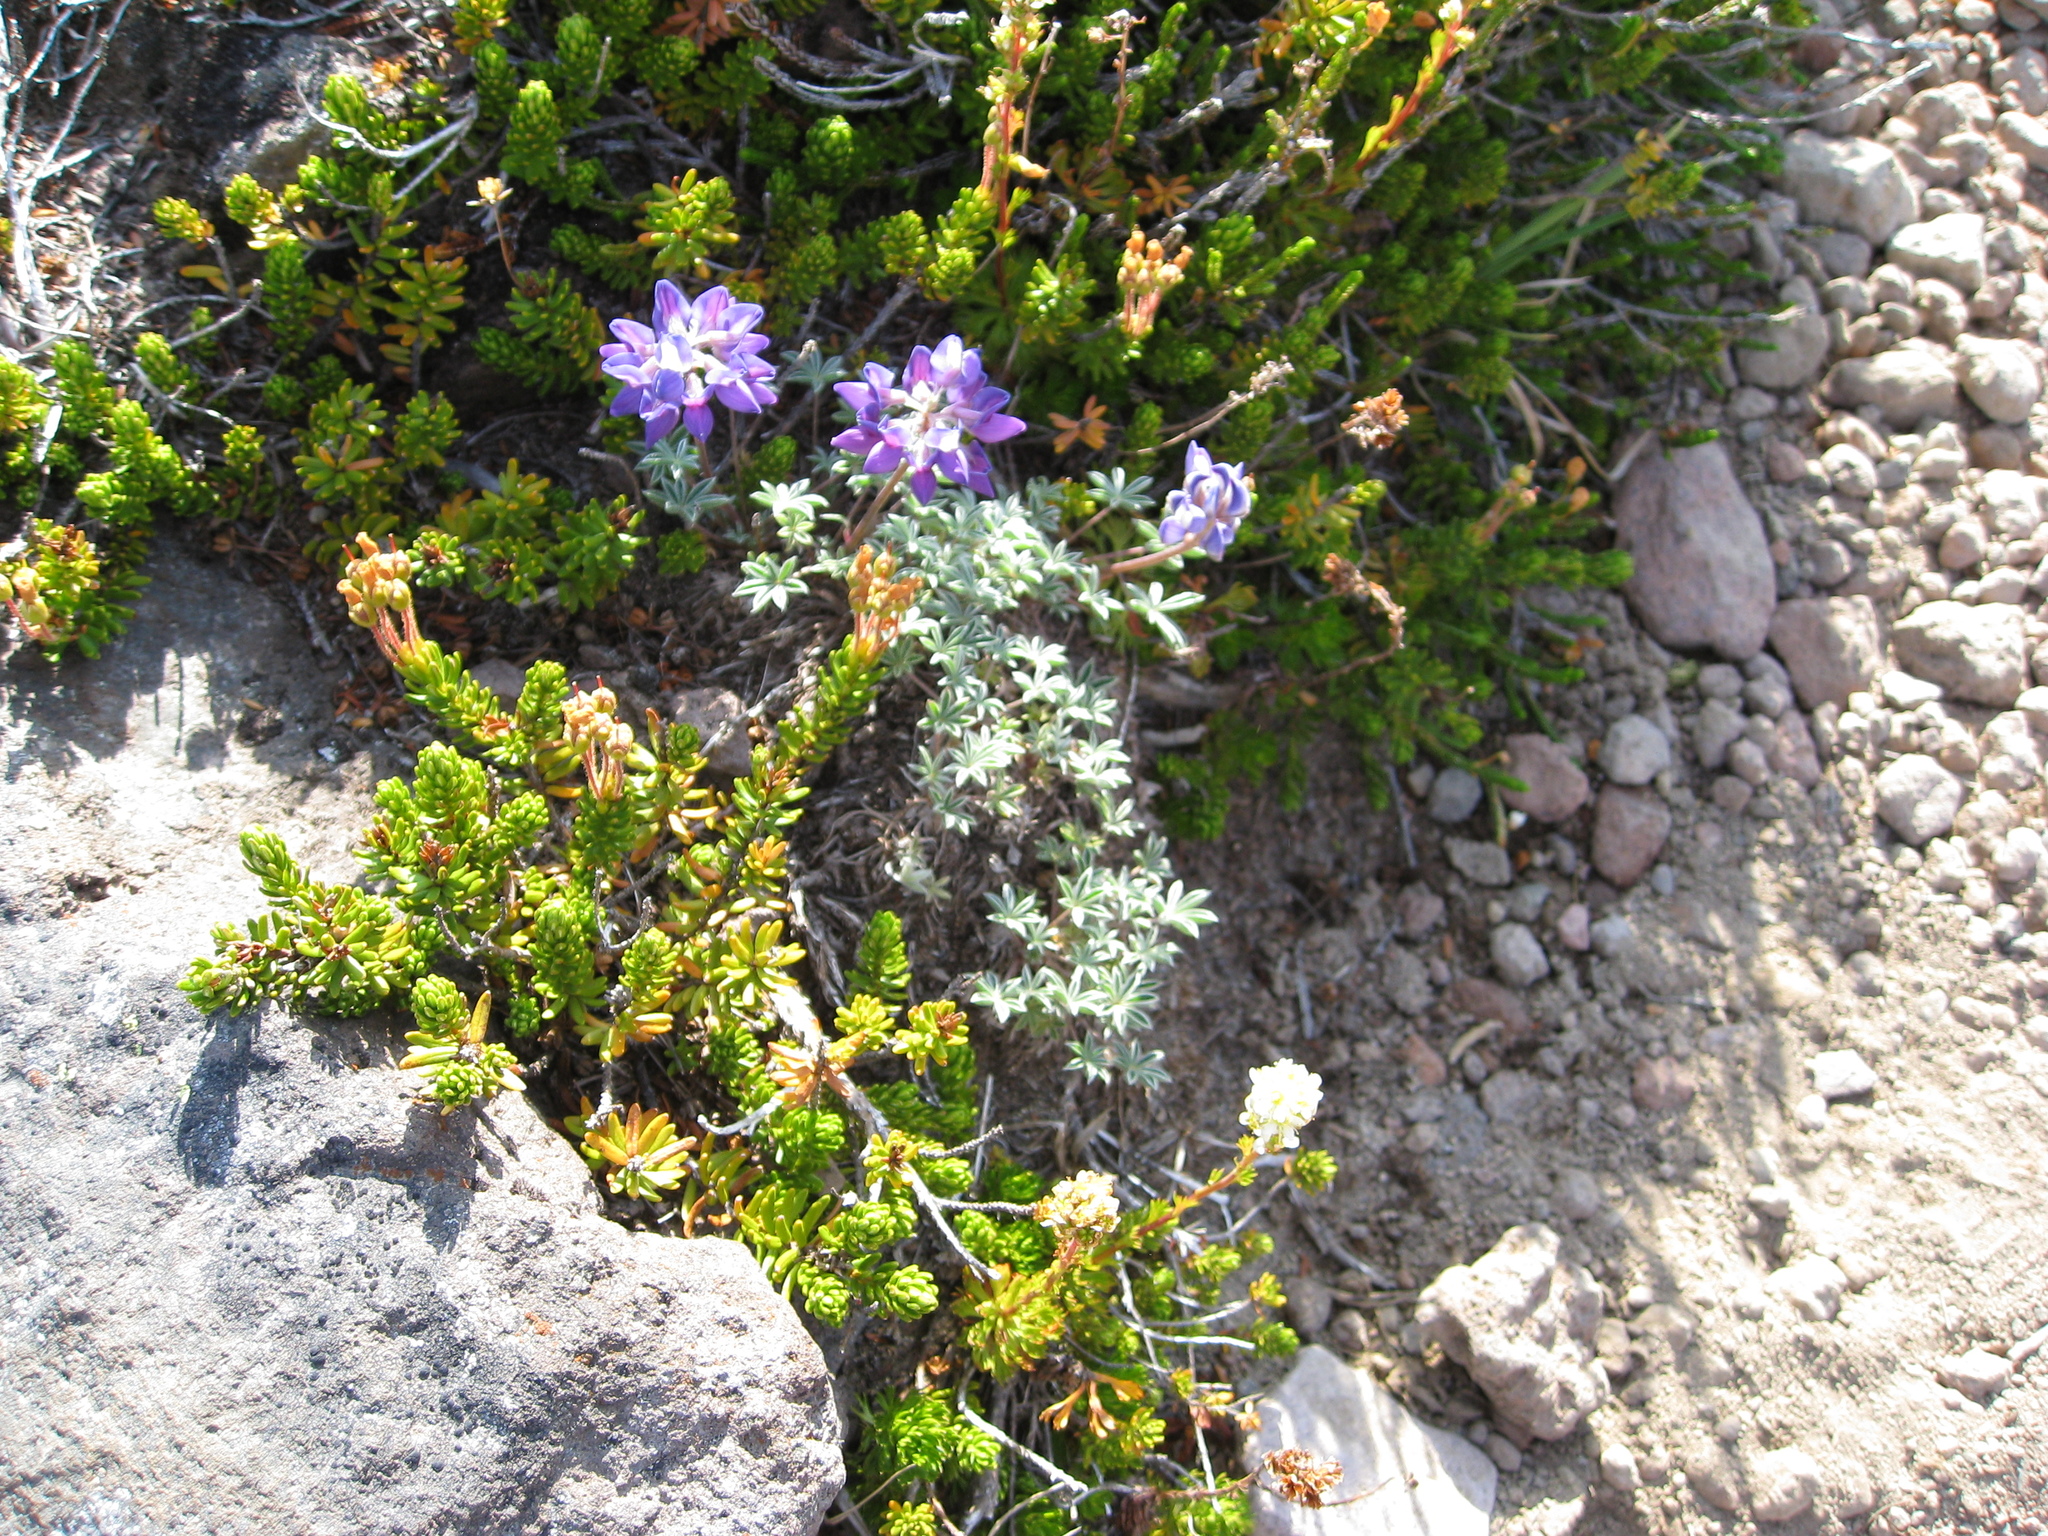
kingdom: Plantae
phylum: Tracheophyta
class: Magnoliopsida
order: Fabales
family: Fabaceae
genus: Lupinus
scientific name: Lupinus sellulus
